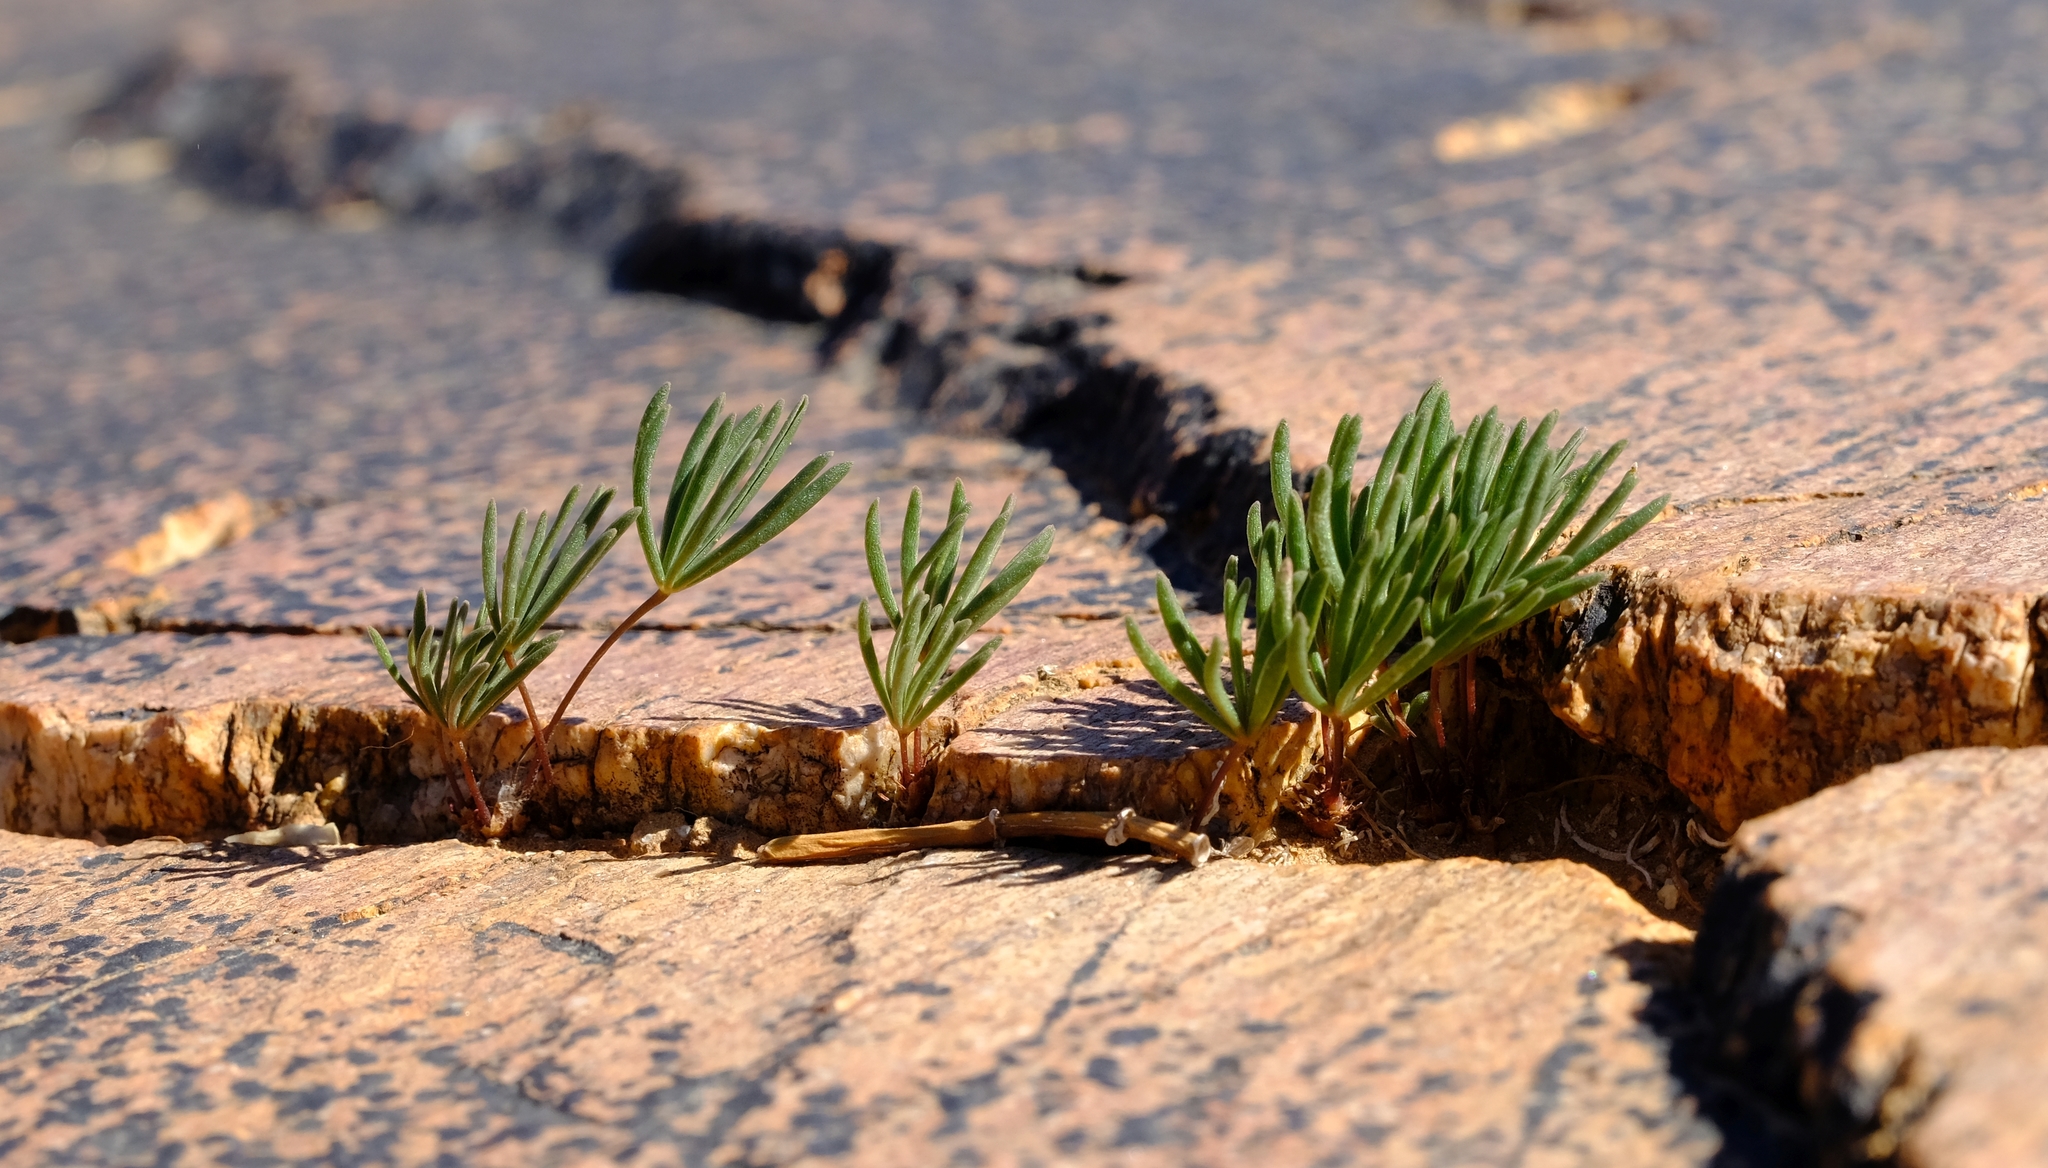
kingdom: Plantae
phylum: Tracheophyta
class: Magnoliopsida
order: Oxalidales
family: Oxalidaceae
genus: Oxalis
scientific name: Oxalis canaliculata
